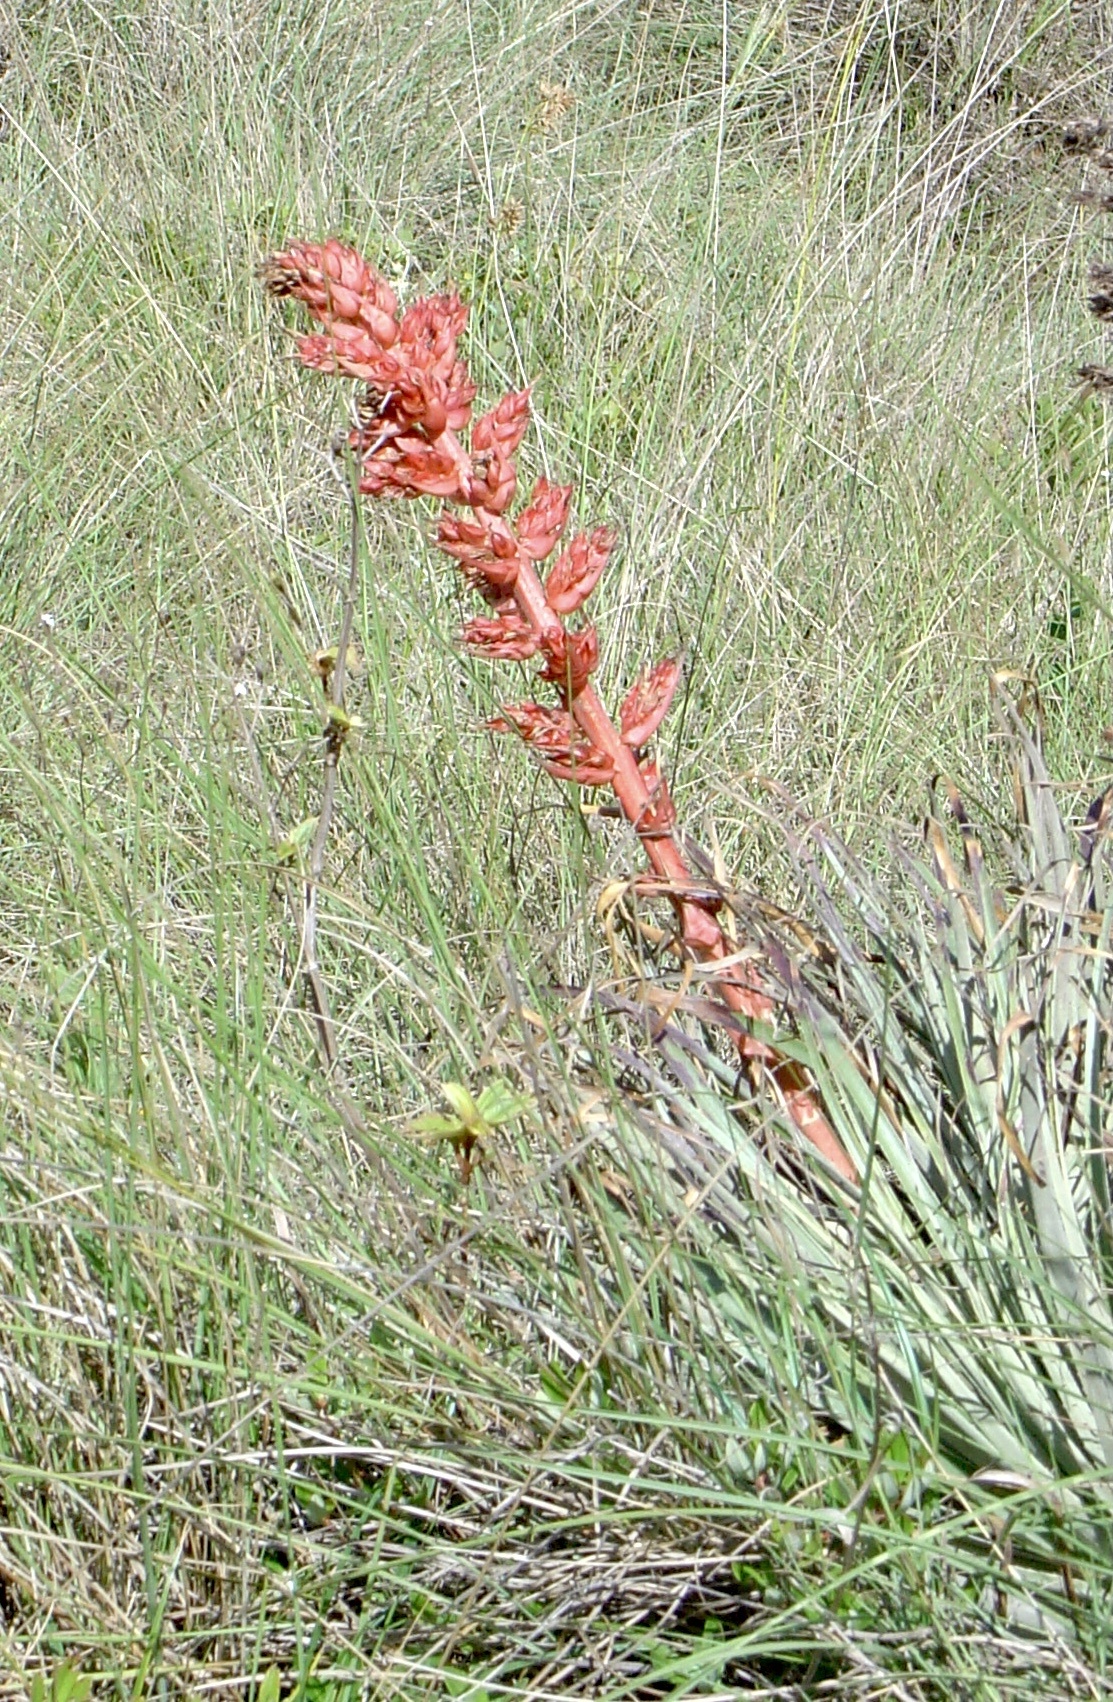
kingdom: Plantae
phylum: Tracheophyta
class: Liliopsida
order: Poales
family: Bromeliaceae
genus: Puya
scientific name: Puya tuberosa
